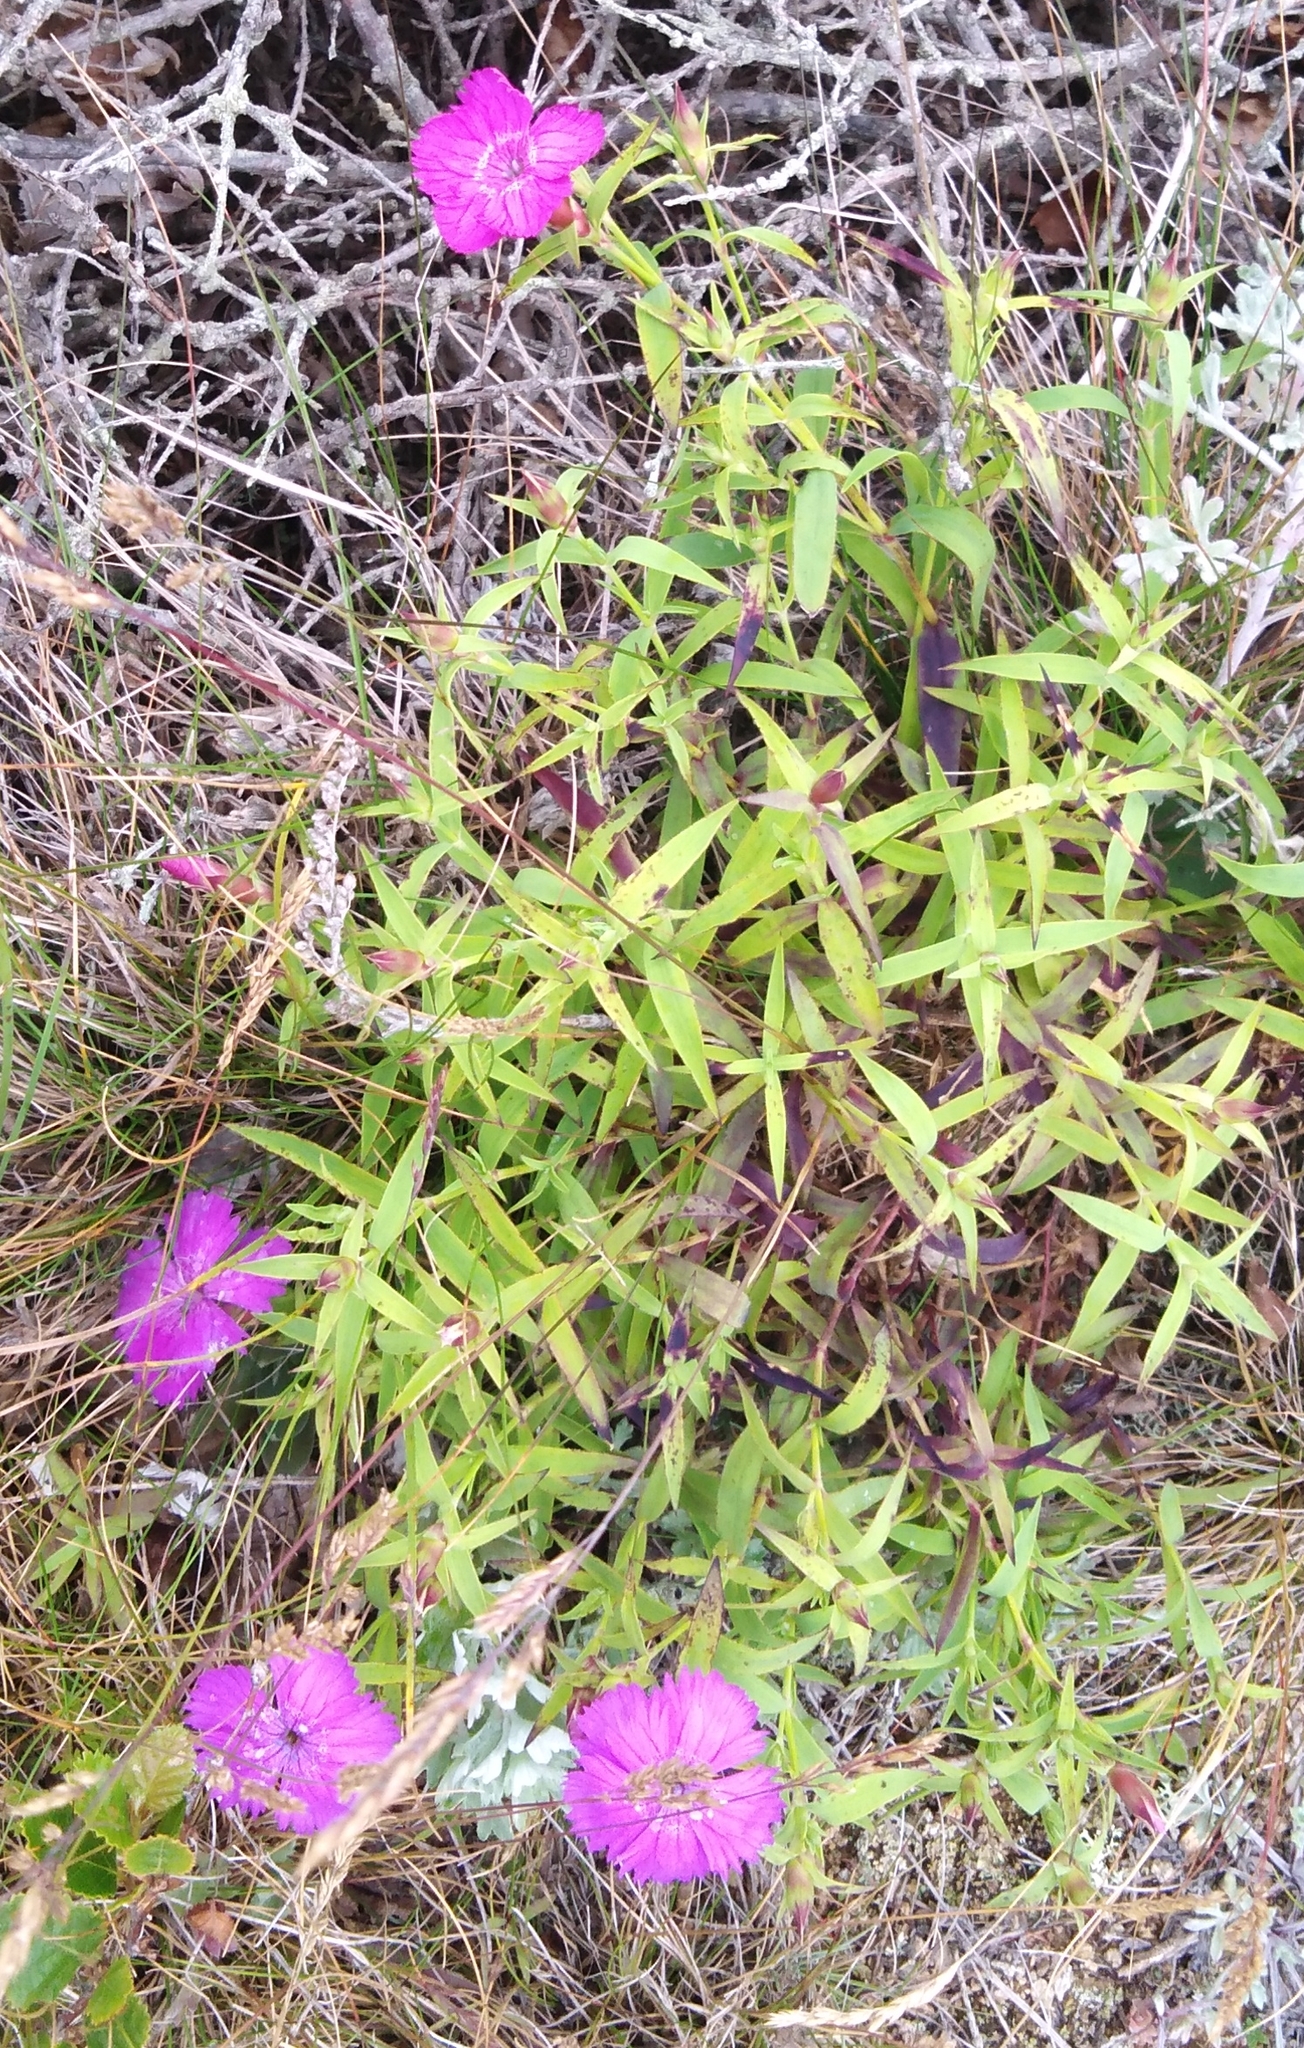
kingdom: Plantae
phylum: Tracheophyta
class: Magnoliopsida
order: Caryophyllales
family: Caryophyllaceae
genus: Dianthus
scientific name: Dianthus chinensis
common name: Rainbow pink
